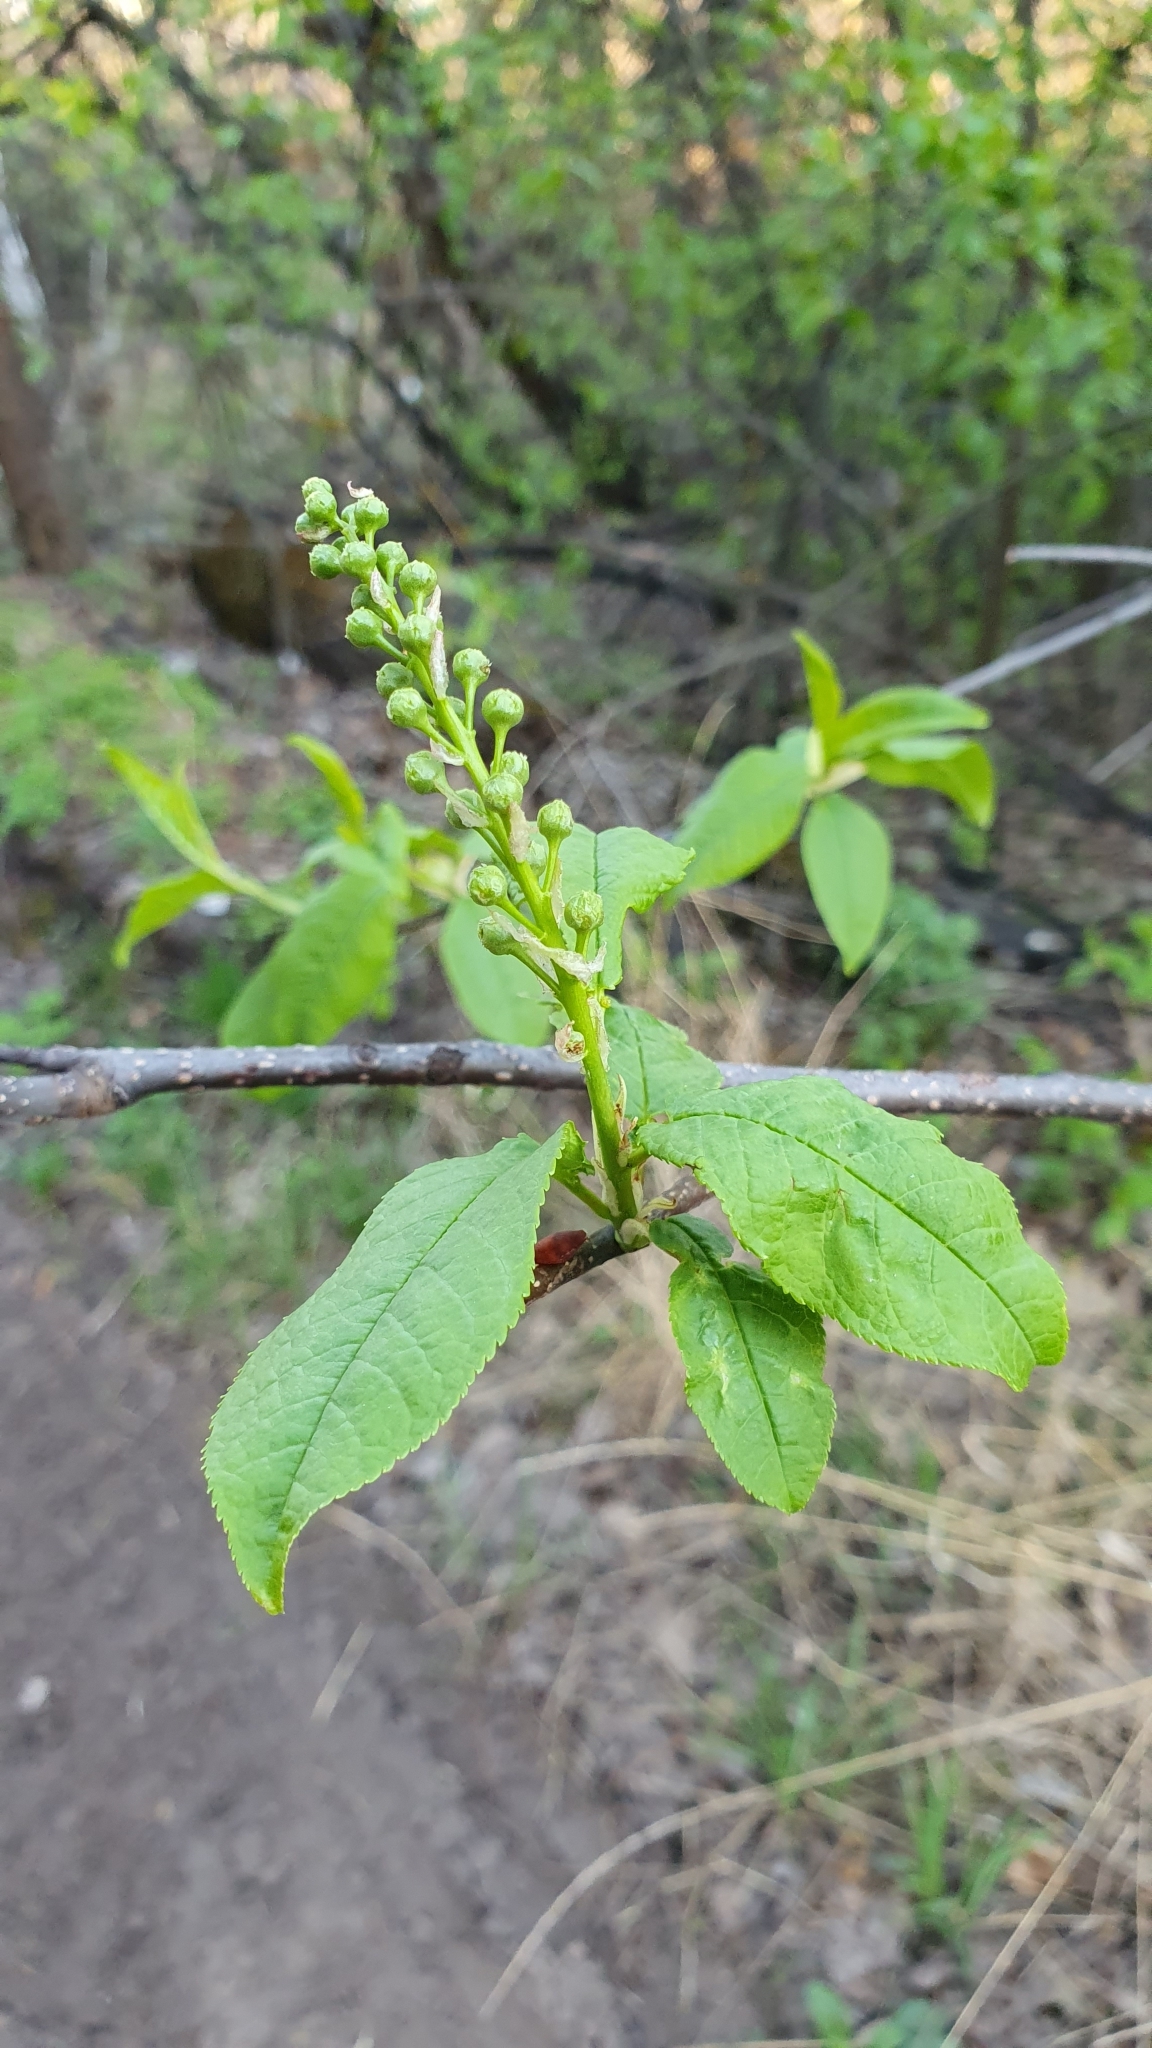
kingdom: Plantae
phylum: Tracheophyta
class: Magnoliopsida
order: Rosales
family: Rosaceae
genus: Prunus
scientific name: Prunus padus
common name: Bird cherry
